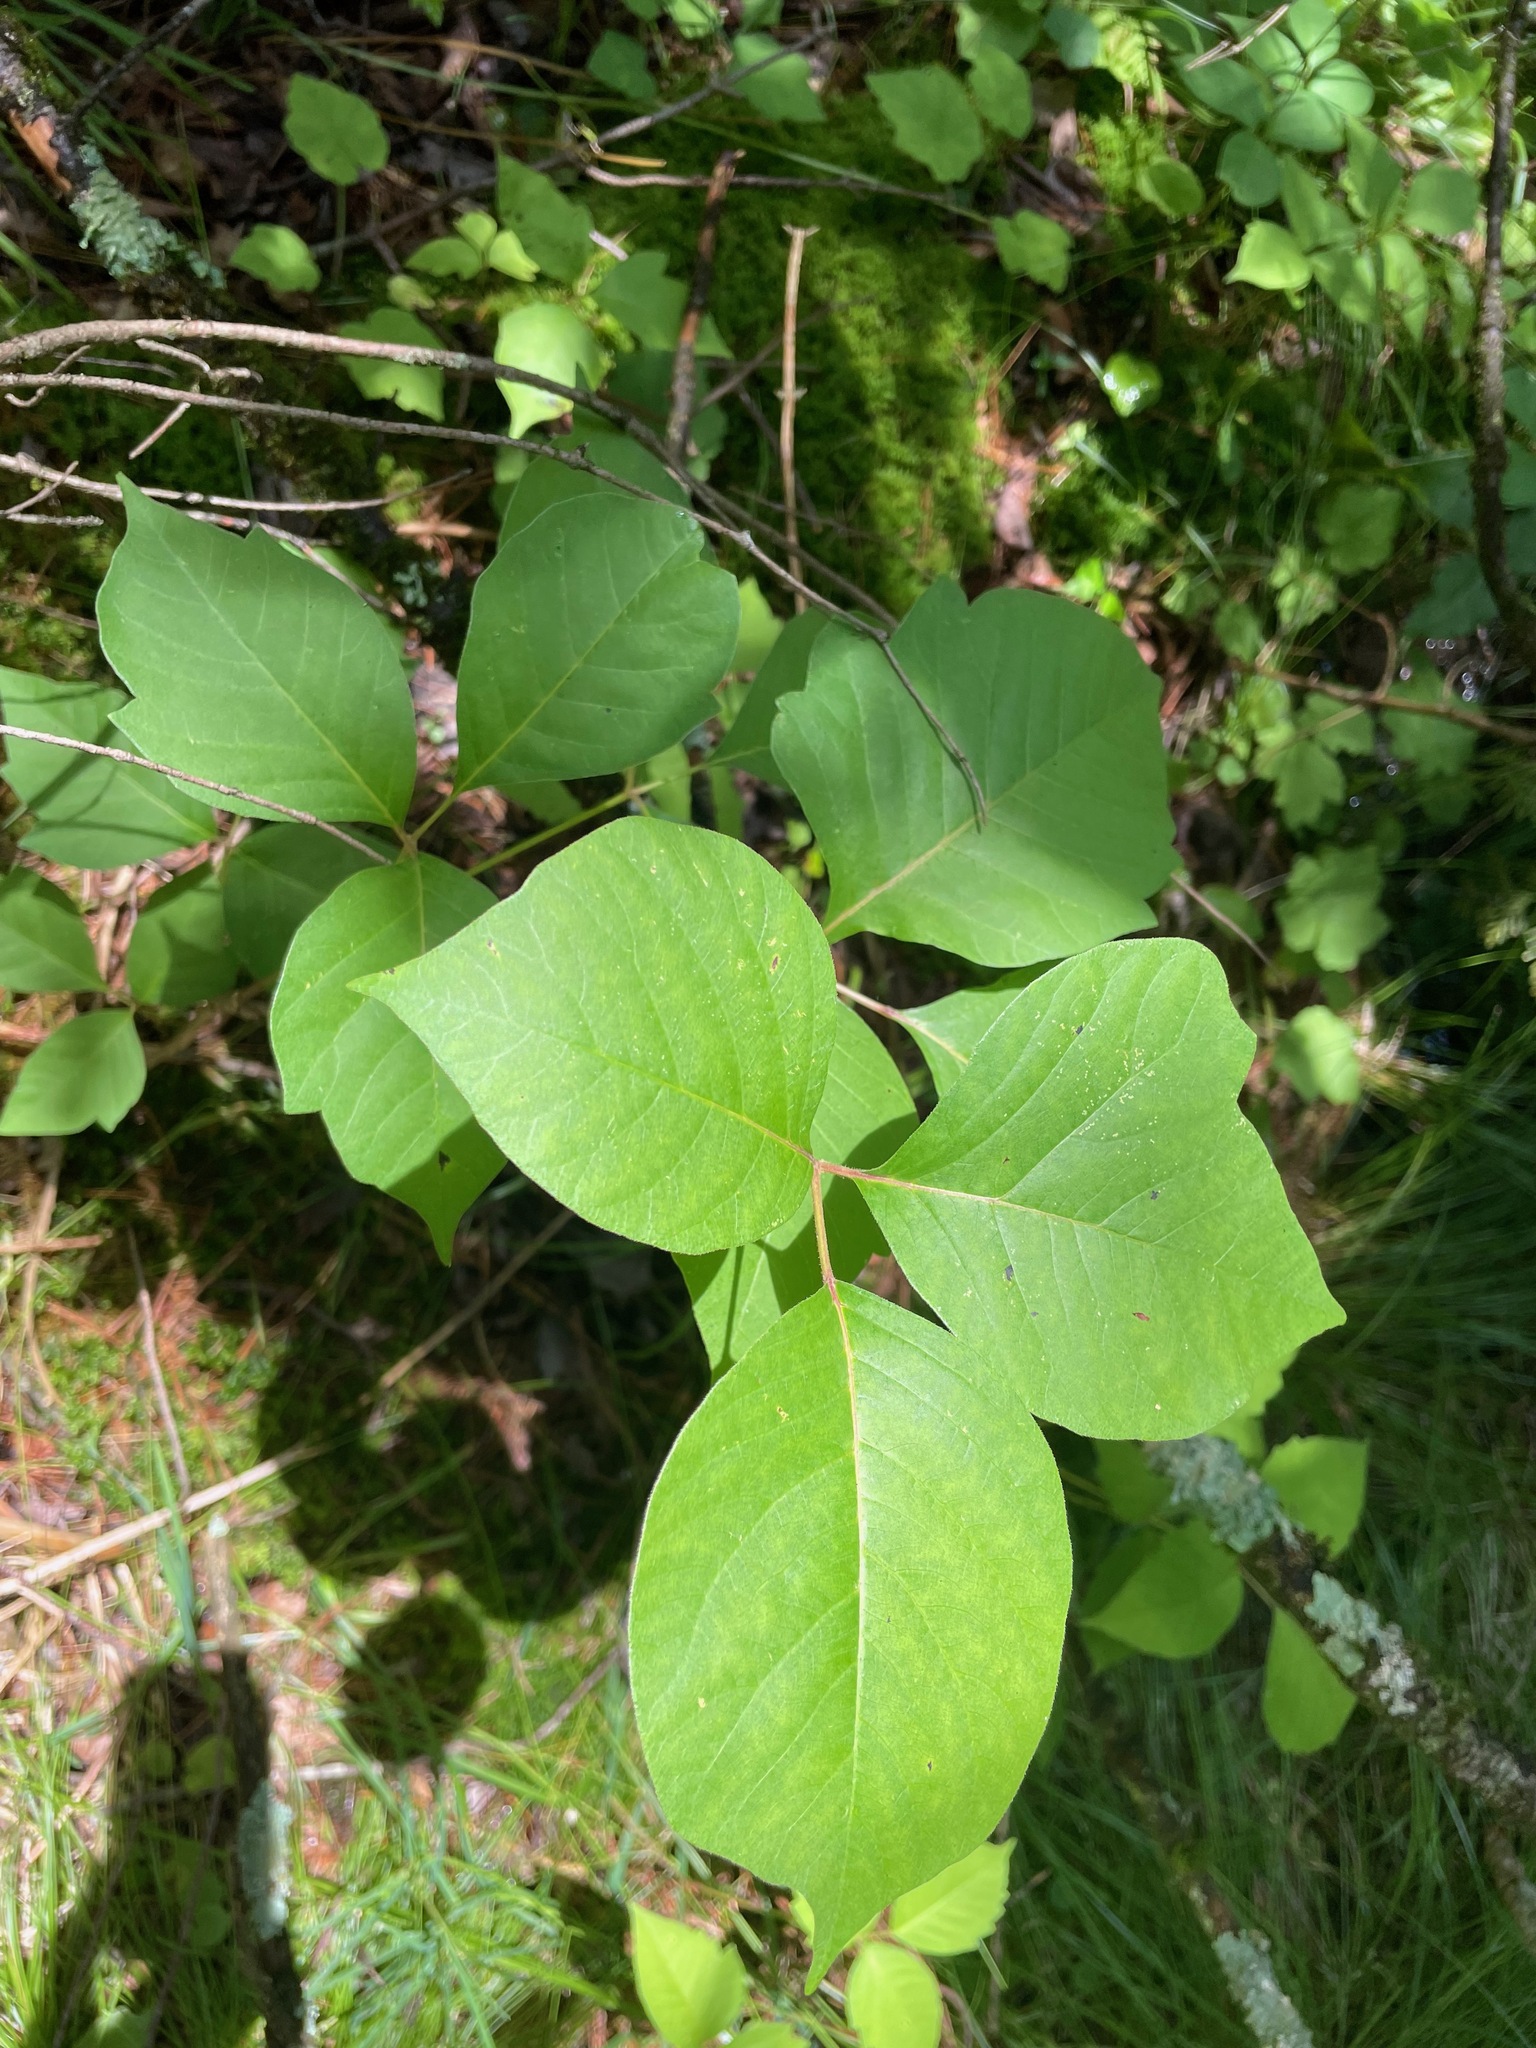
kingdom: Plantae
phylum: Tracheophyta
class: Magnoliopsida
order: Sapindales
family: Anacardiaceae
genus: Toxicodendron
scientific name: Toxicodendron rydbergii
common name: Rydberg's poison-ivy
